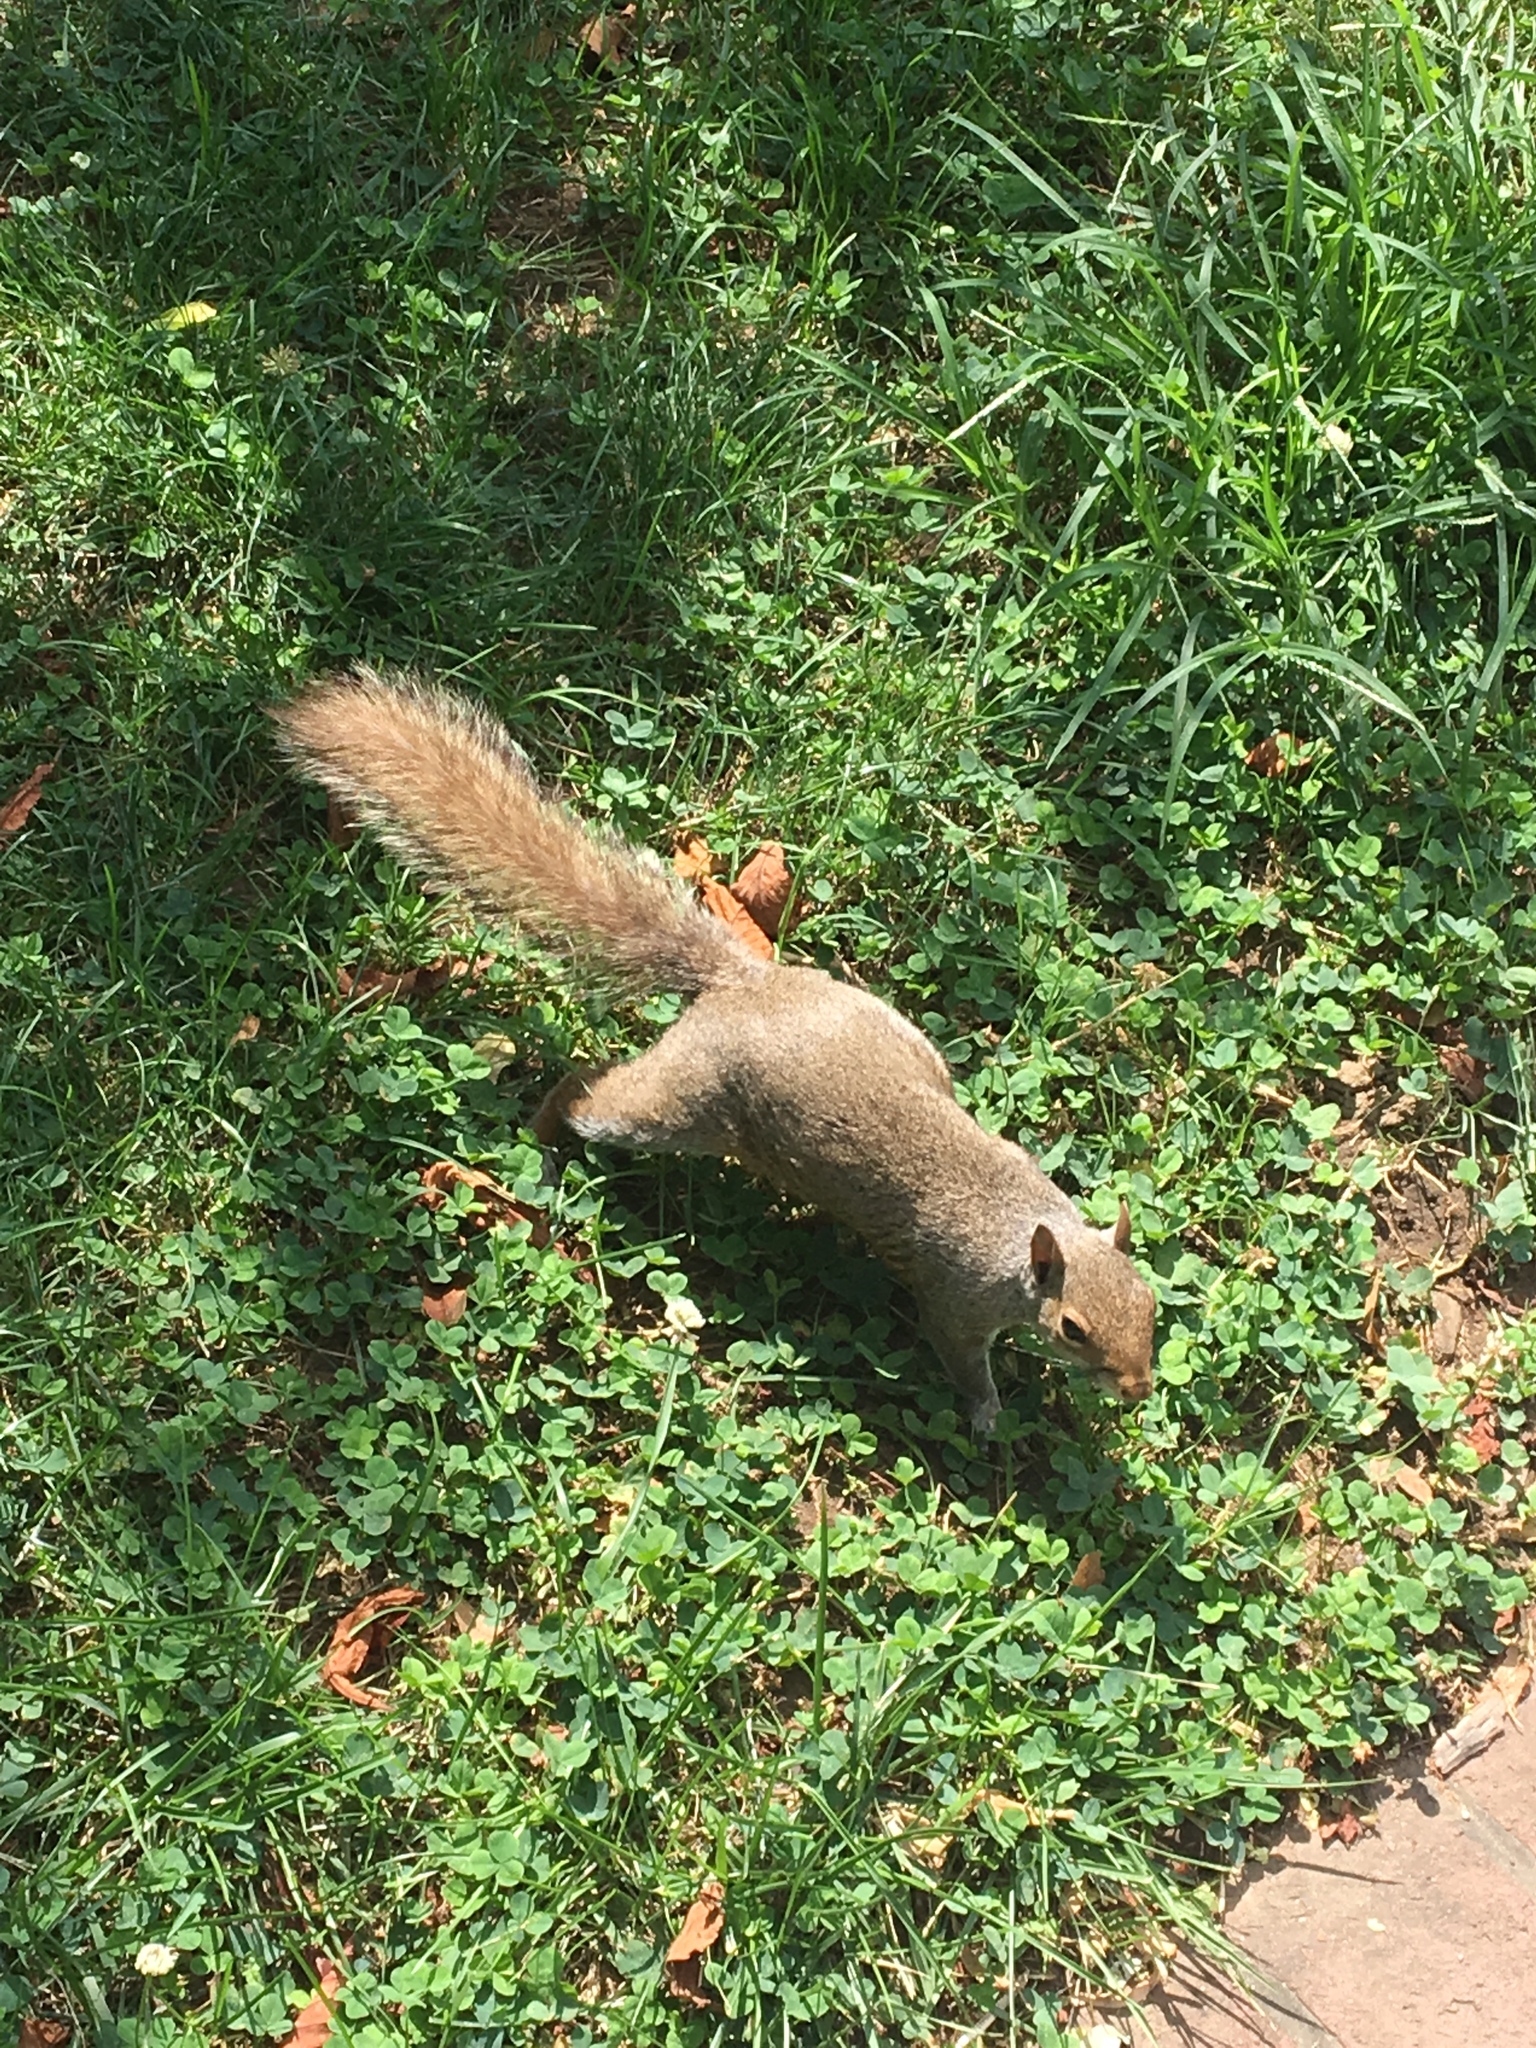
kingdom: Animalia
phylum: Chordata
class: Mammalia
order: Rodentia
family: Sciuridae
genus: Sciurus
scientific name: Sciurus carolinensis
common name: Eastern gray squirrel
